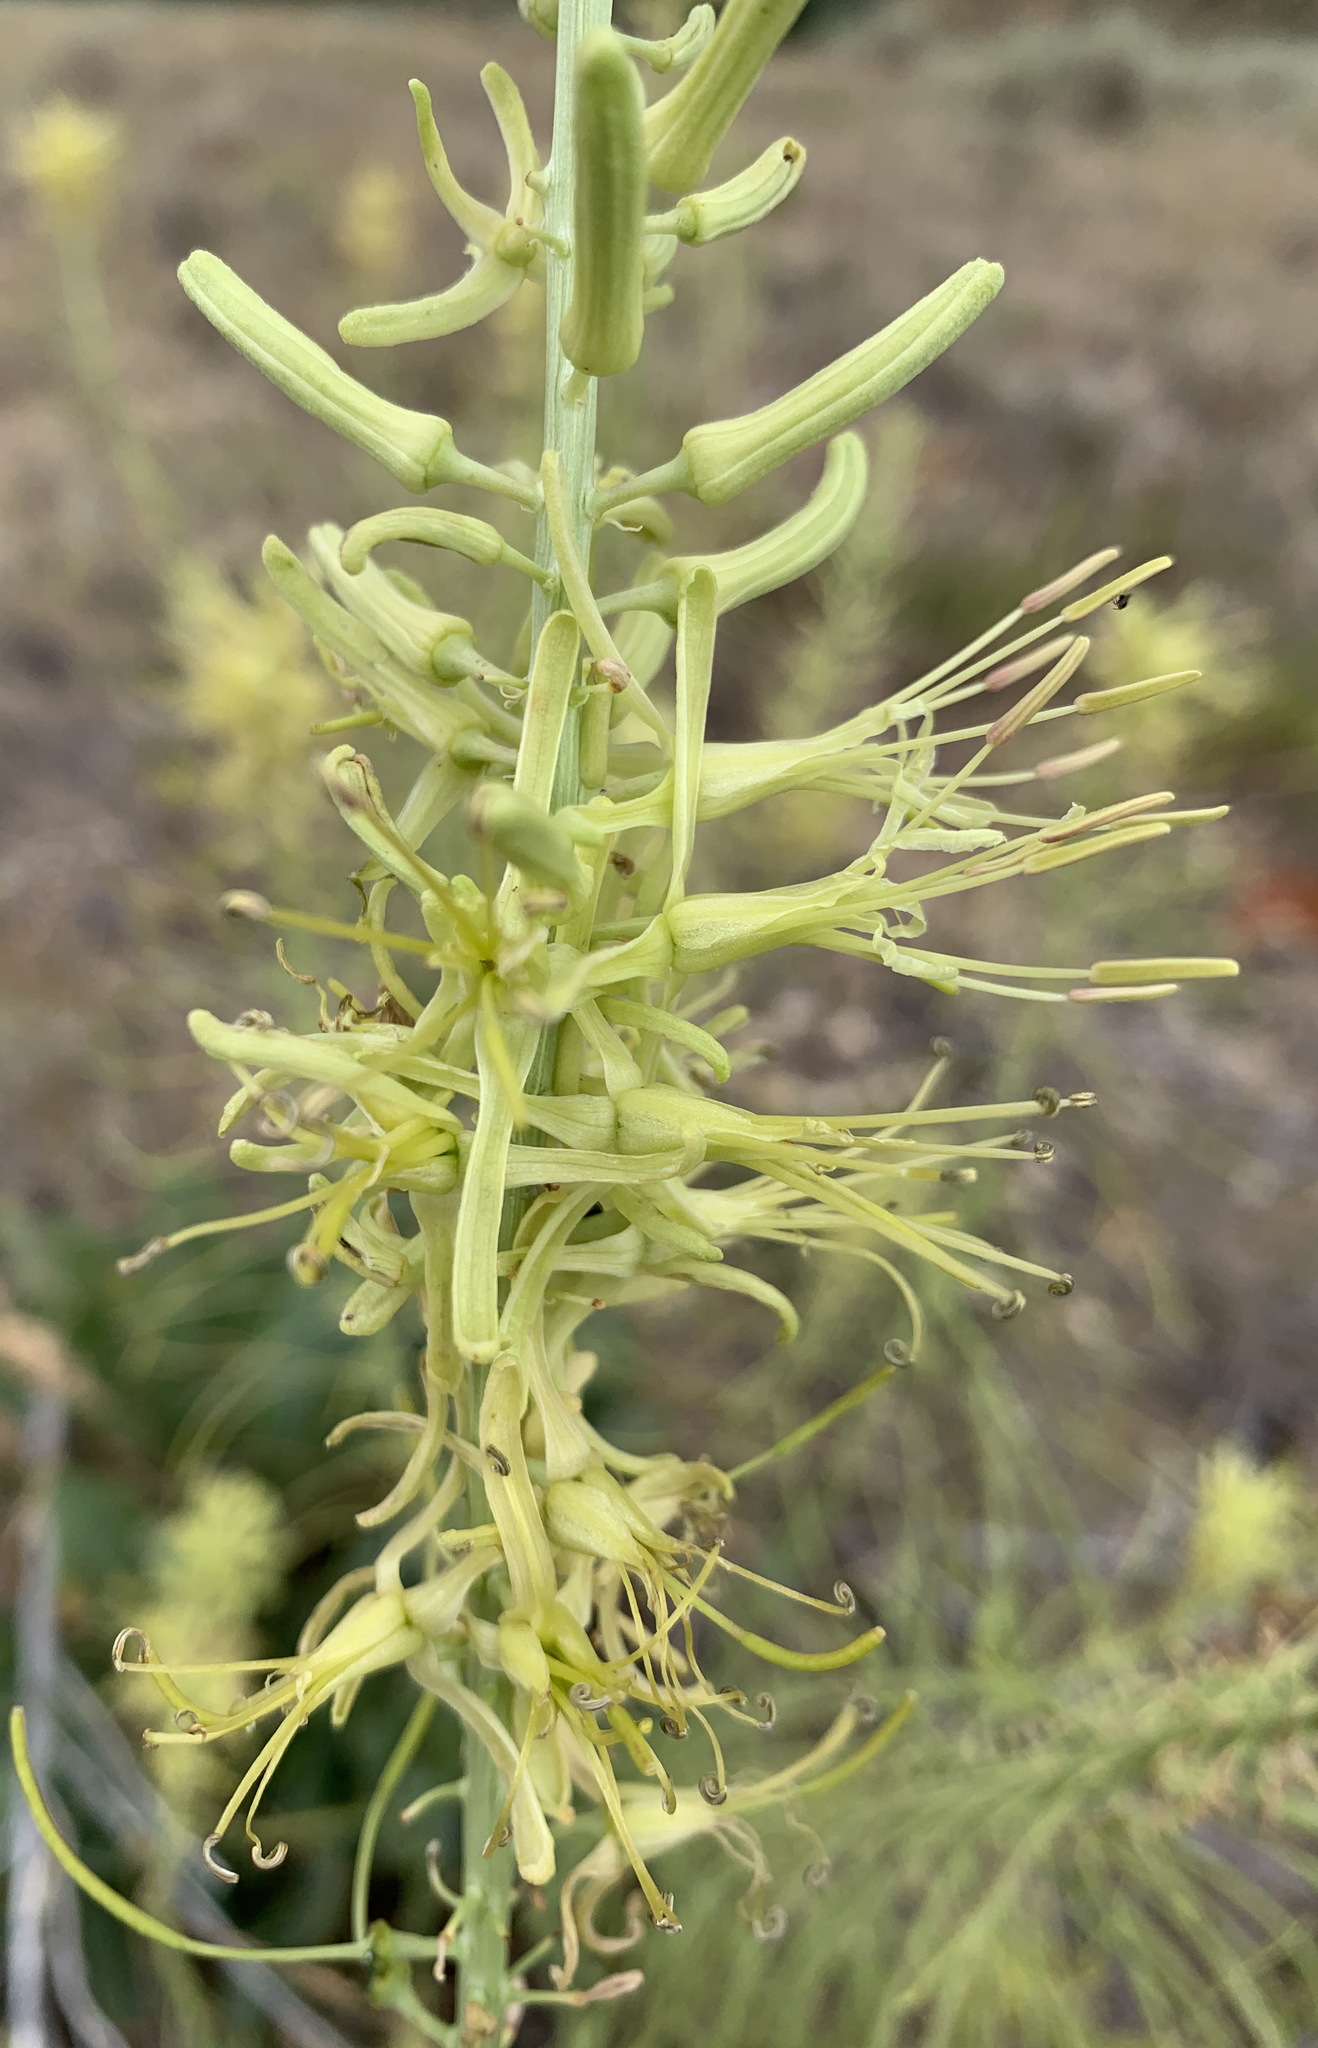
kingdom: Plantae
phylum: Tracheophyta
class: Magnoliopsida
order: Brassicales
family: Brassicaceae
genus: Stanleya
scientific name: Stanleya viridiflora
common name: Desert plume
